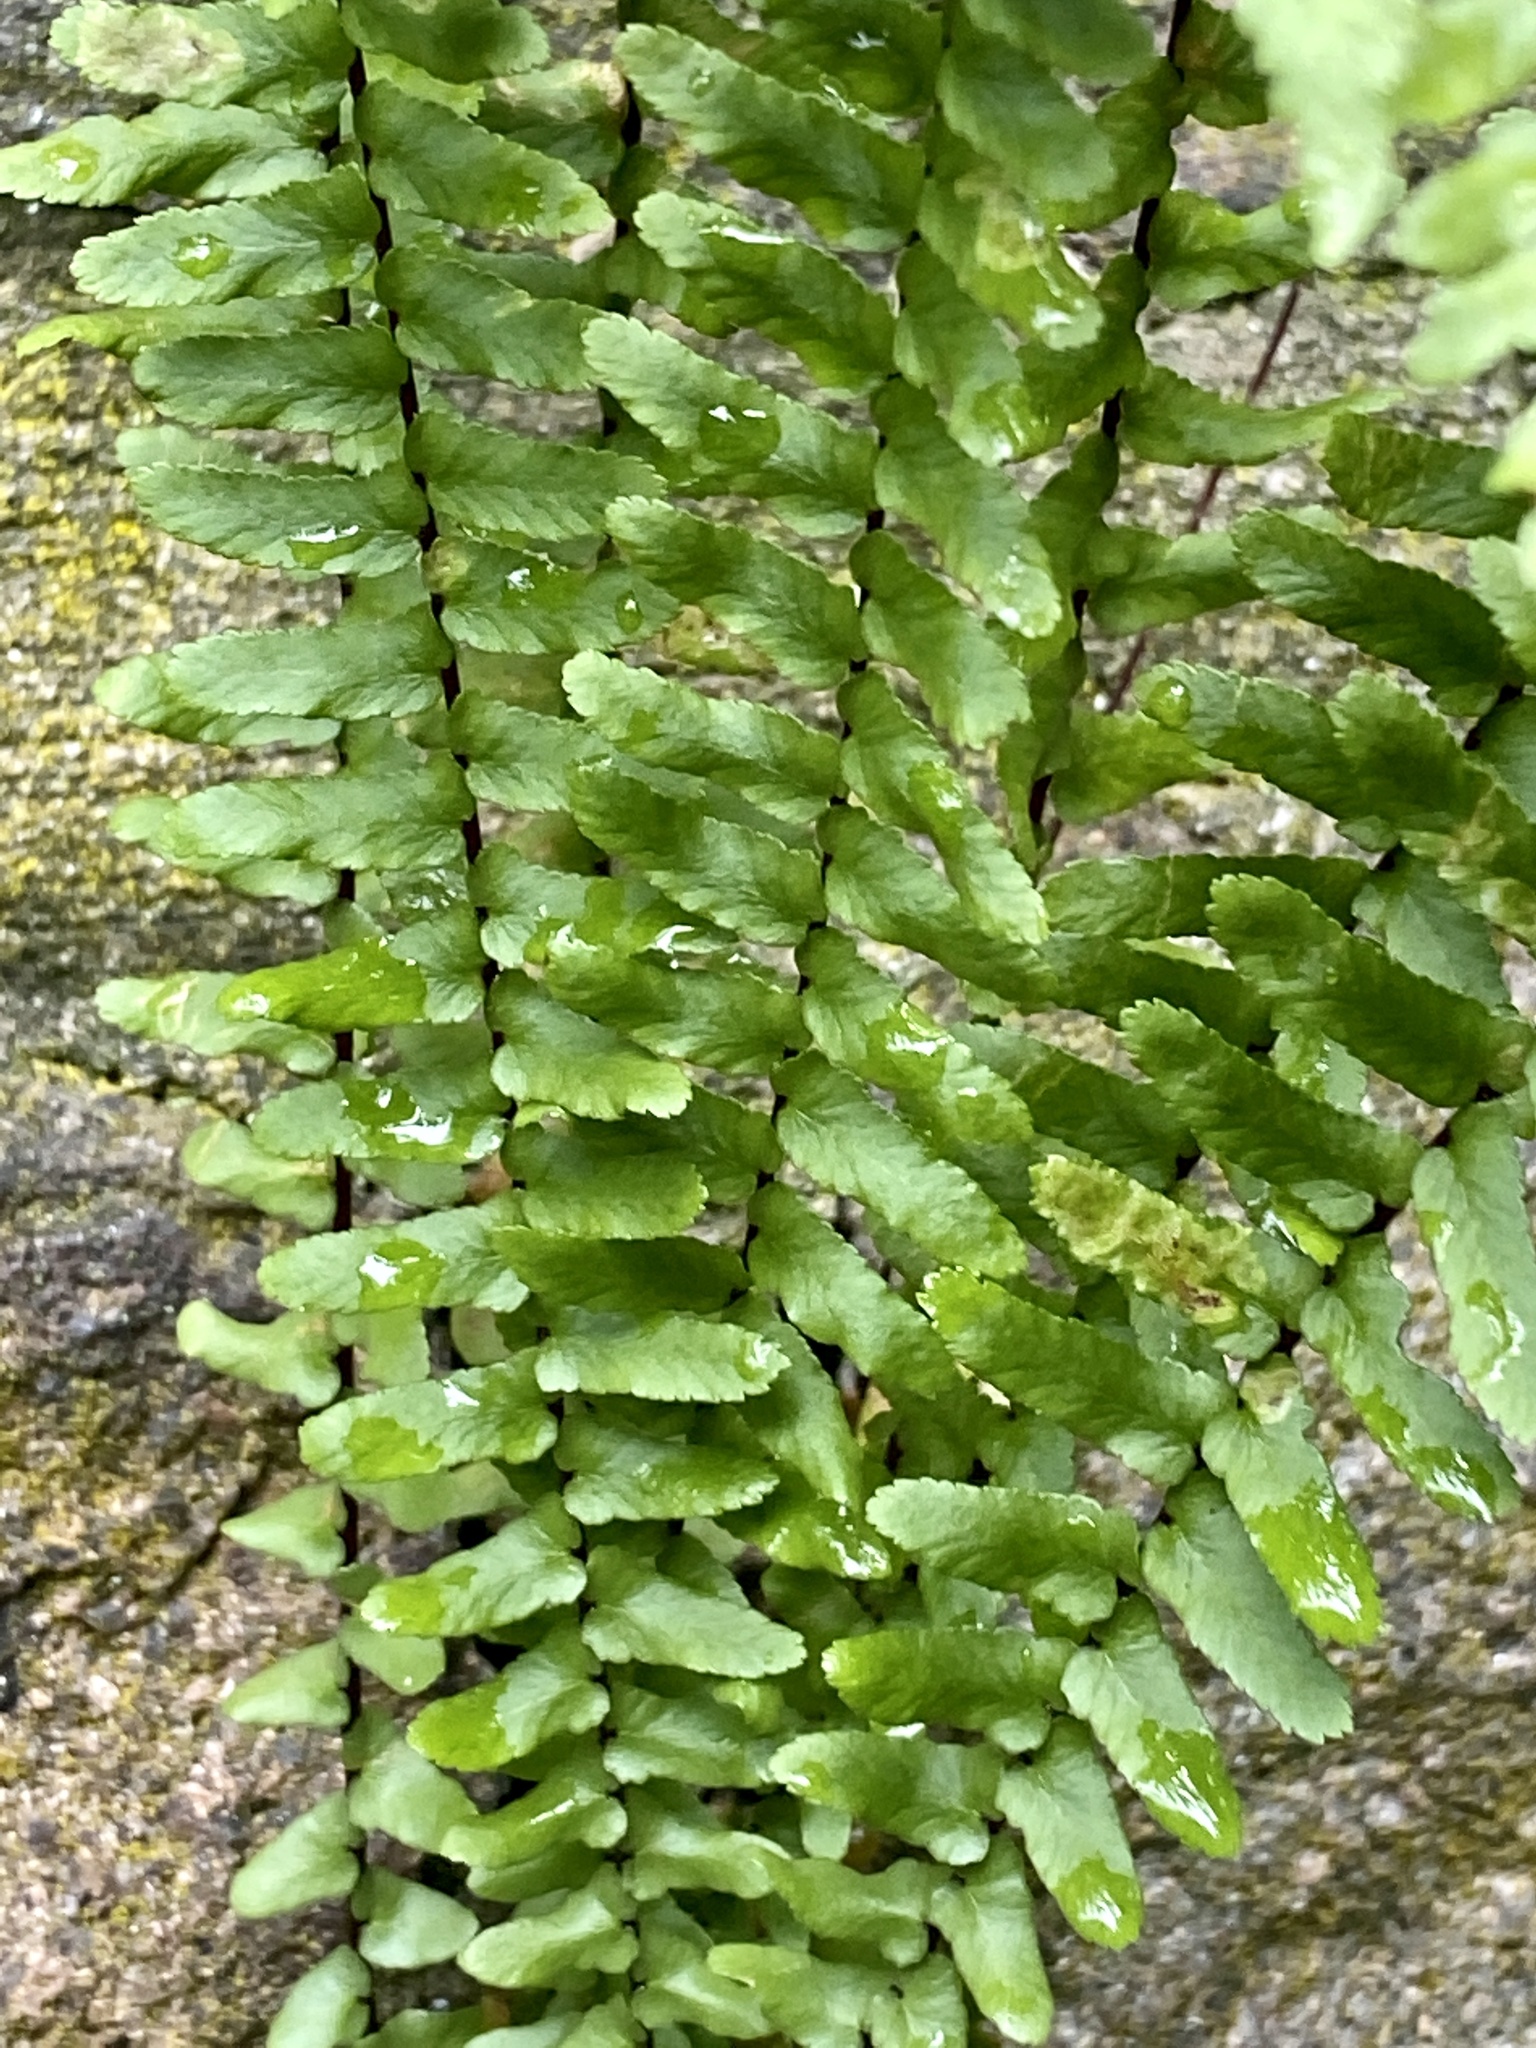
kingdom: Plantae
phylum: Tracheophyta
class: Polypodiopsida
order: Polypodiales
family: Aspleniaceae
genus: Asplenium
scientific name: Asplenium platyneuron
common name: Ebony spleenwort
